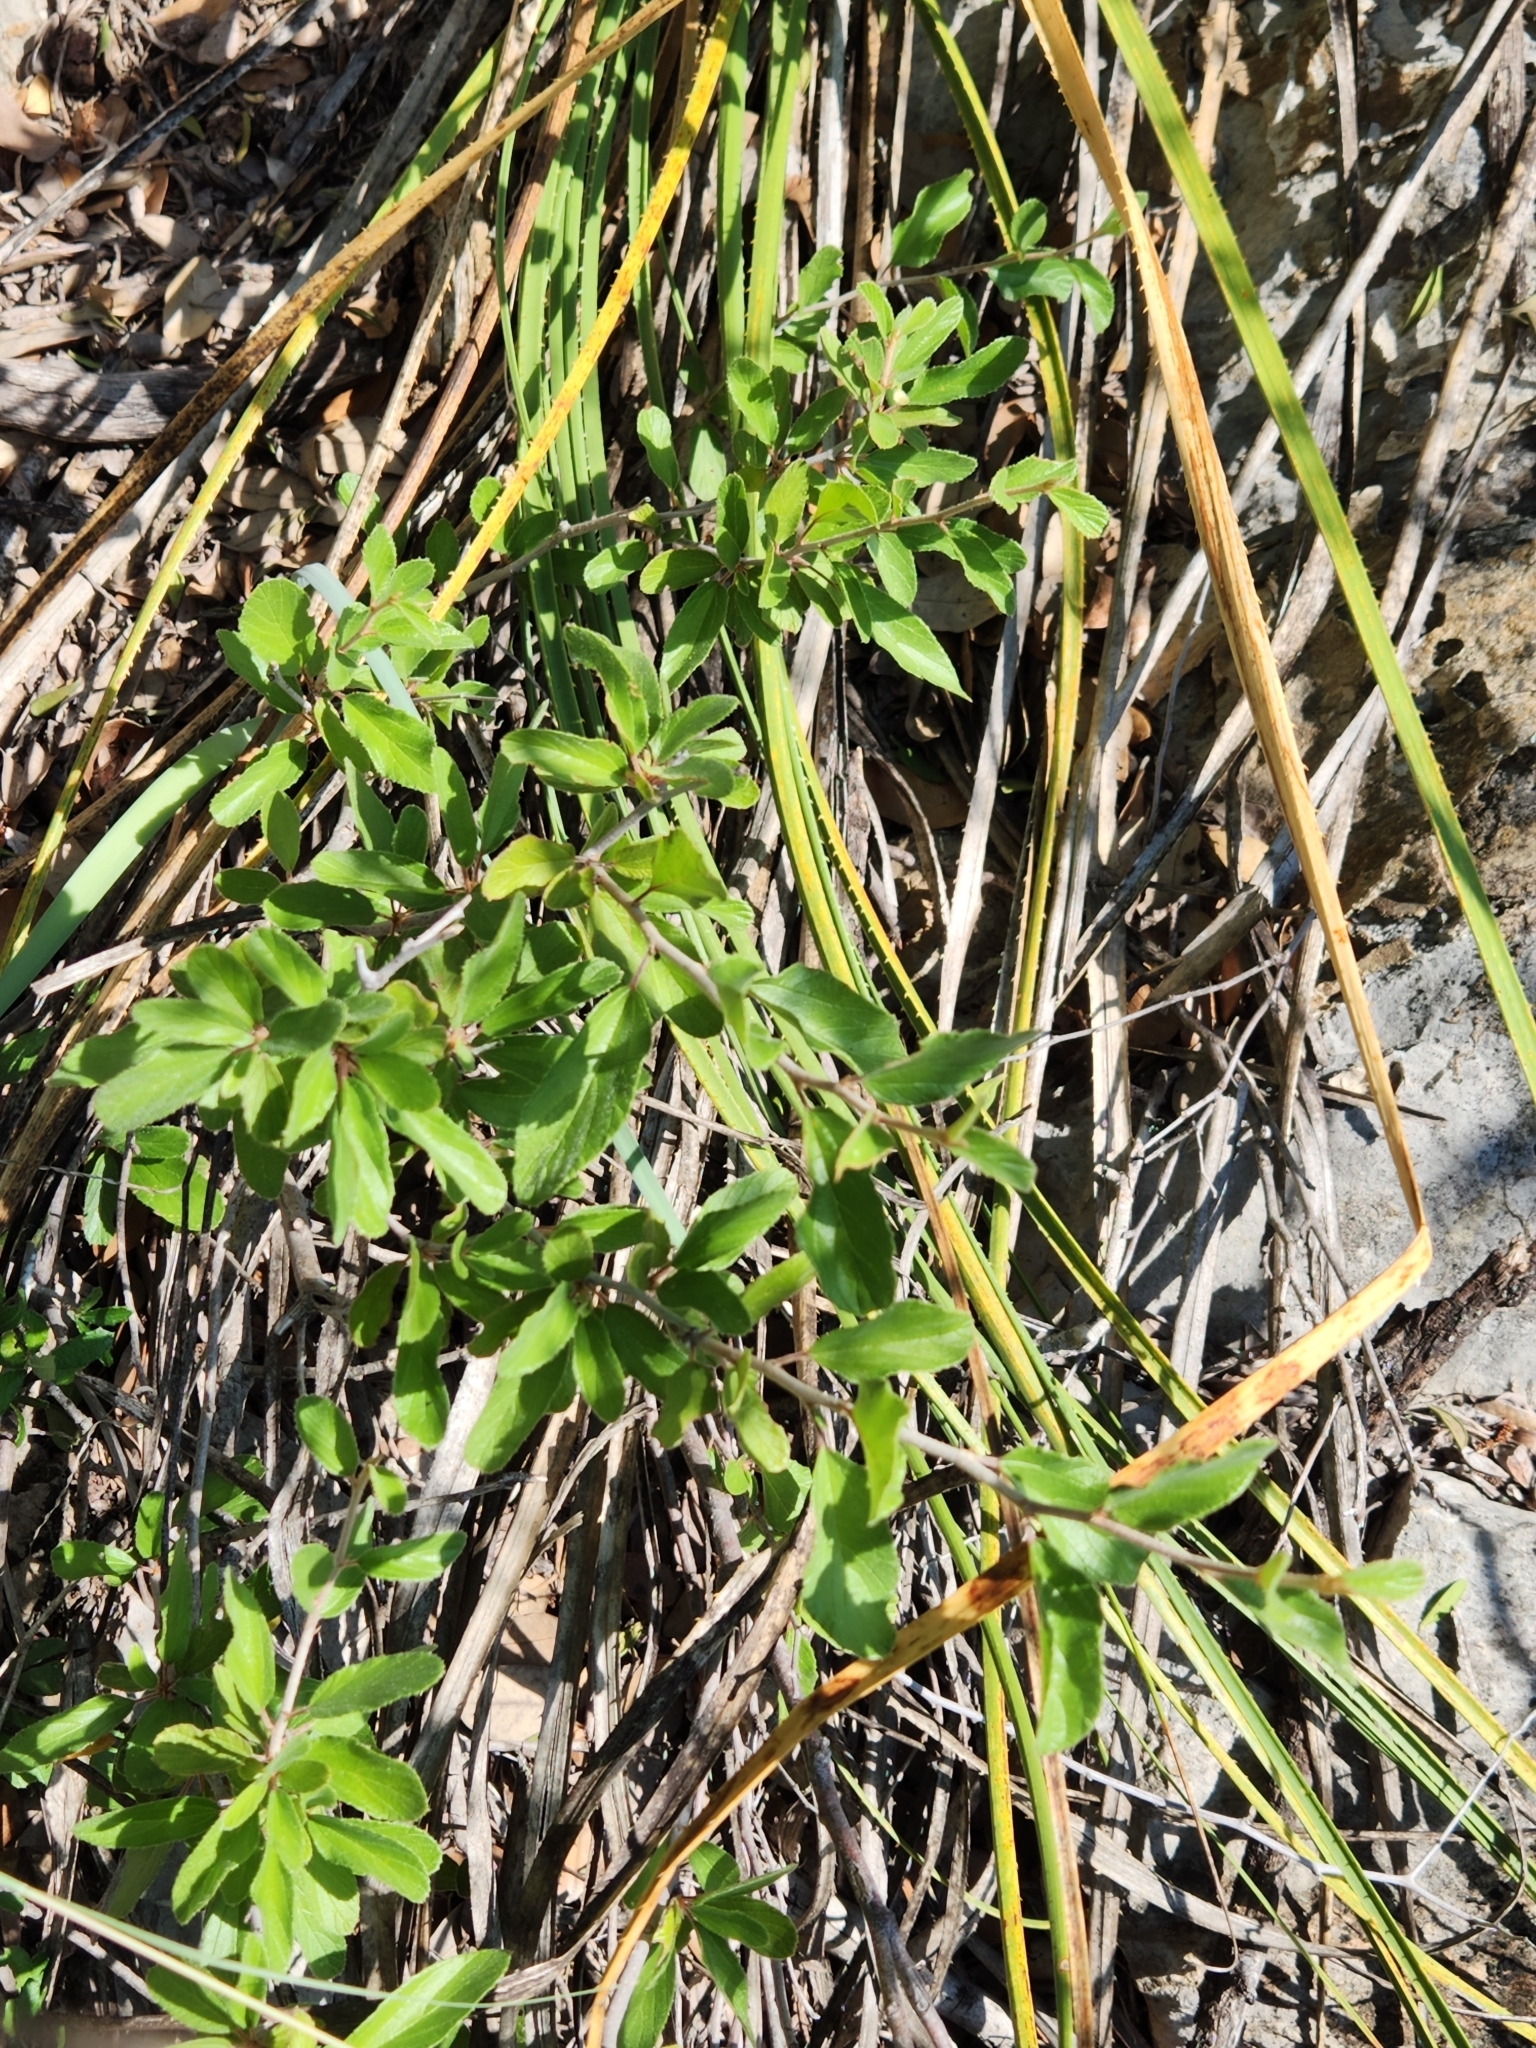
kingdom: Plantae
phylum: Tracheophyta
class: Magnoliopsida
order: Rosales
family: Rhamnaceae
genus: Colubrina
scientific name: Colubrina texensis
